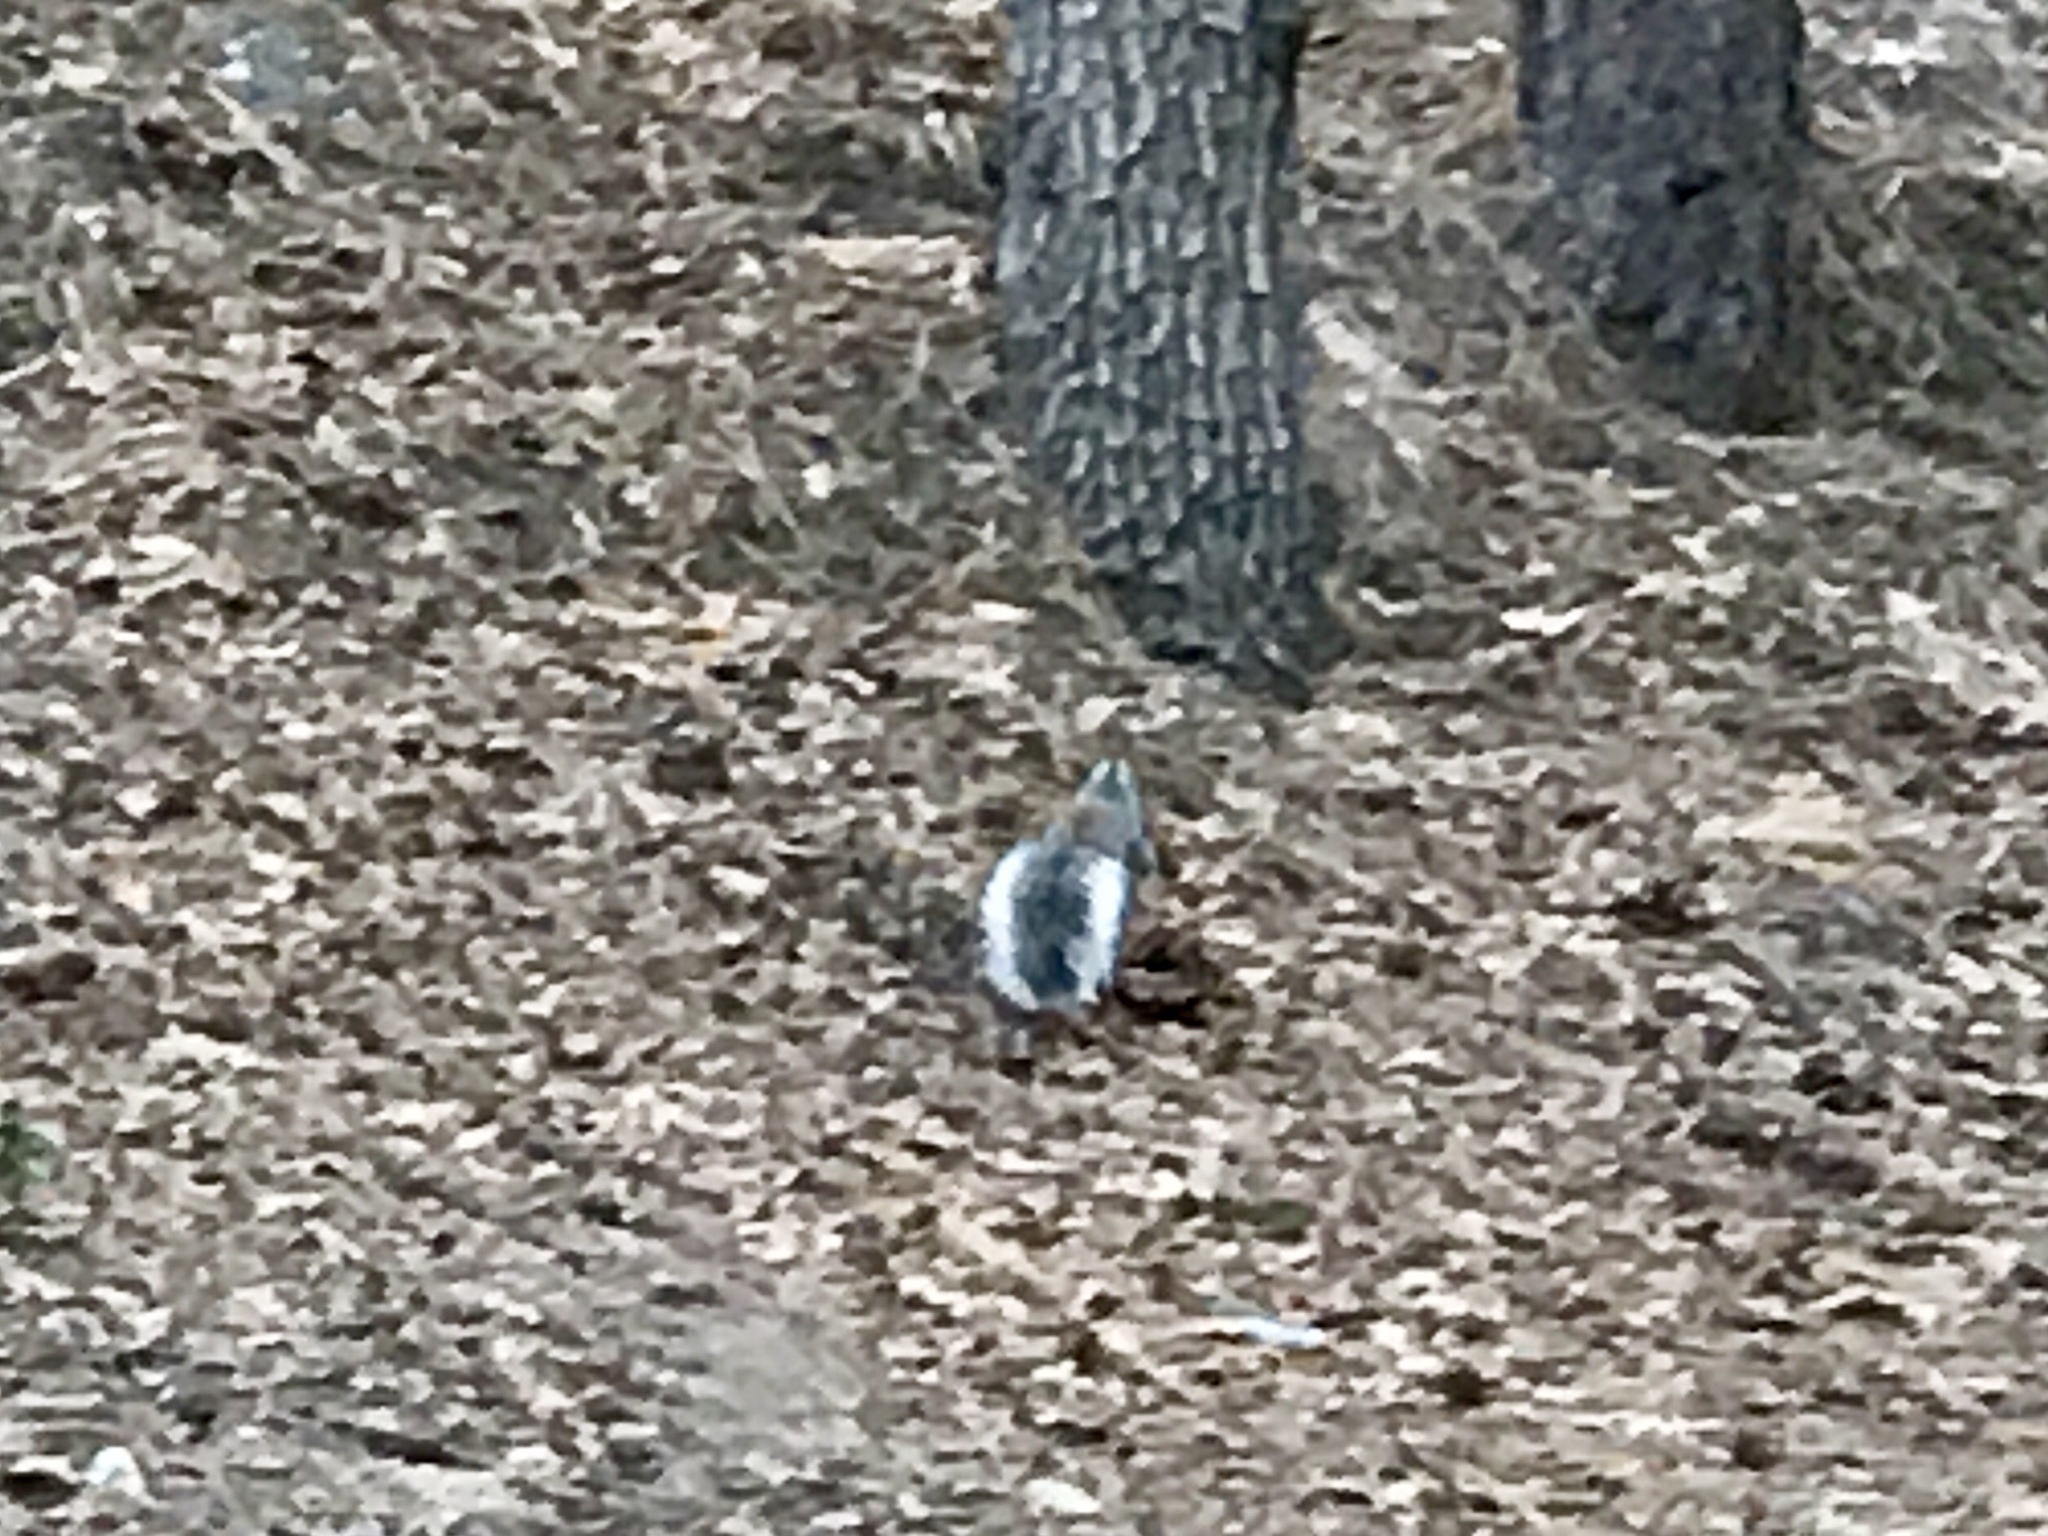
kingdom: Animalia
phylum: Chordata
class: Mammalia
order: Rodentia
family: Sciuridae
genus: Sciurus
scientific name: Sciurus aberti
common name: Abert's squirrel
